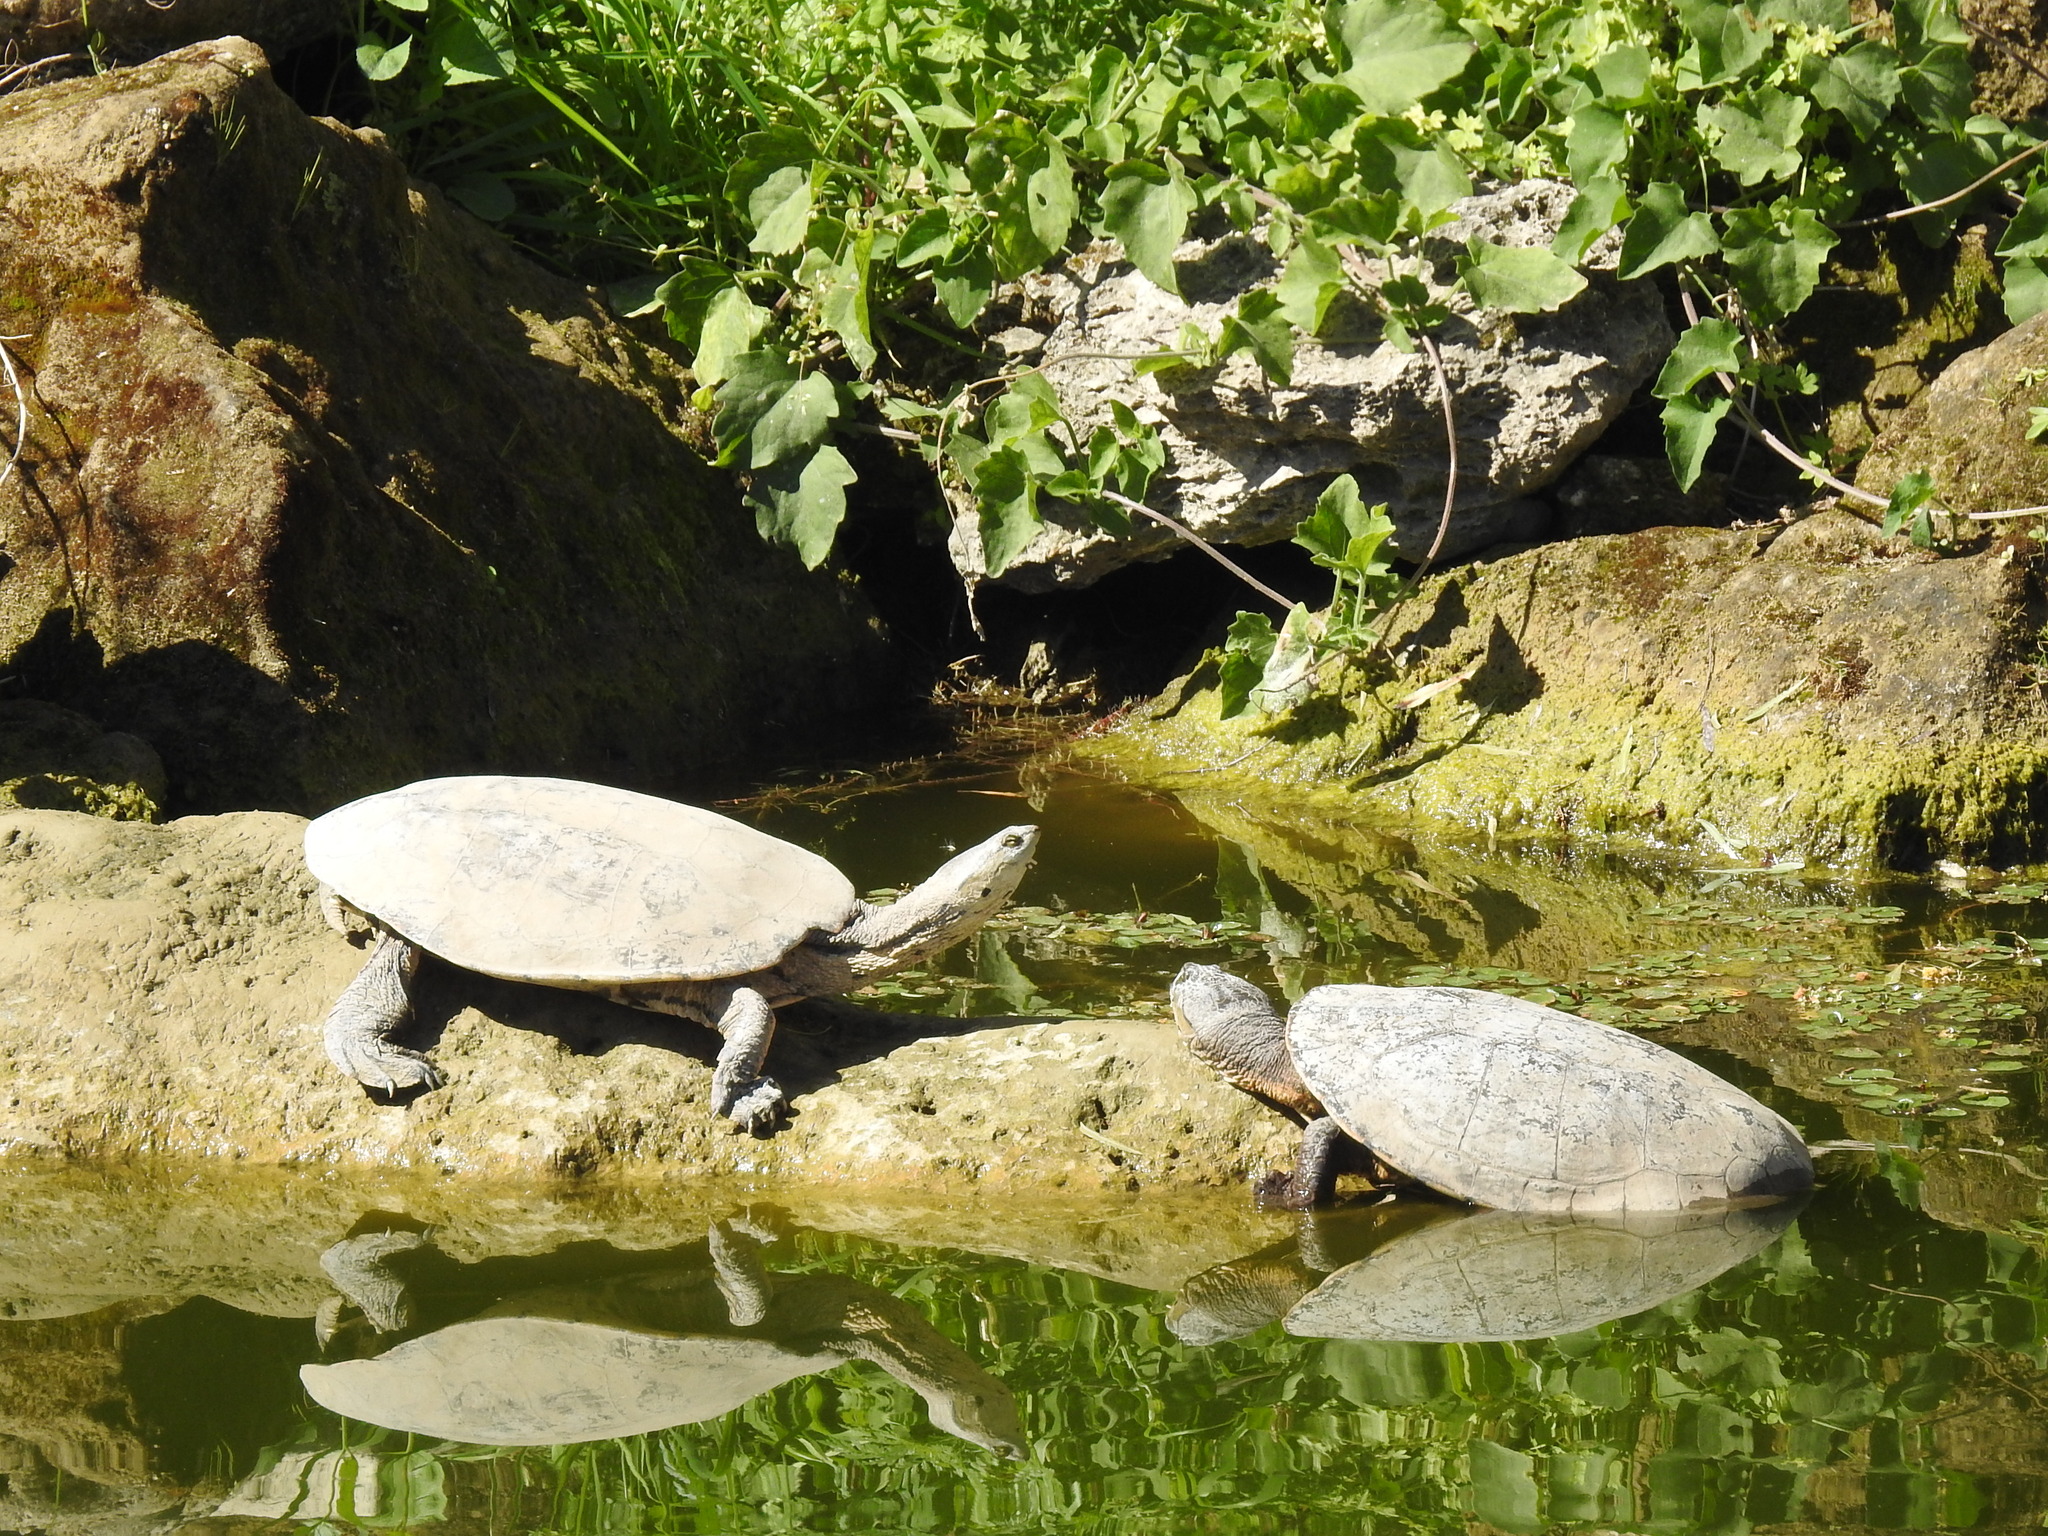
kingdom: Animalia
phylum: Chordata
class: Testudines
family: Chelidae
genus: Phrynops
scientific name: Phrynops hilarii
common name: Side-necked turtle of saint hillaire
